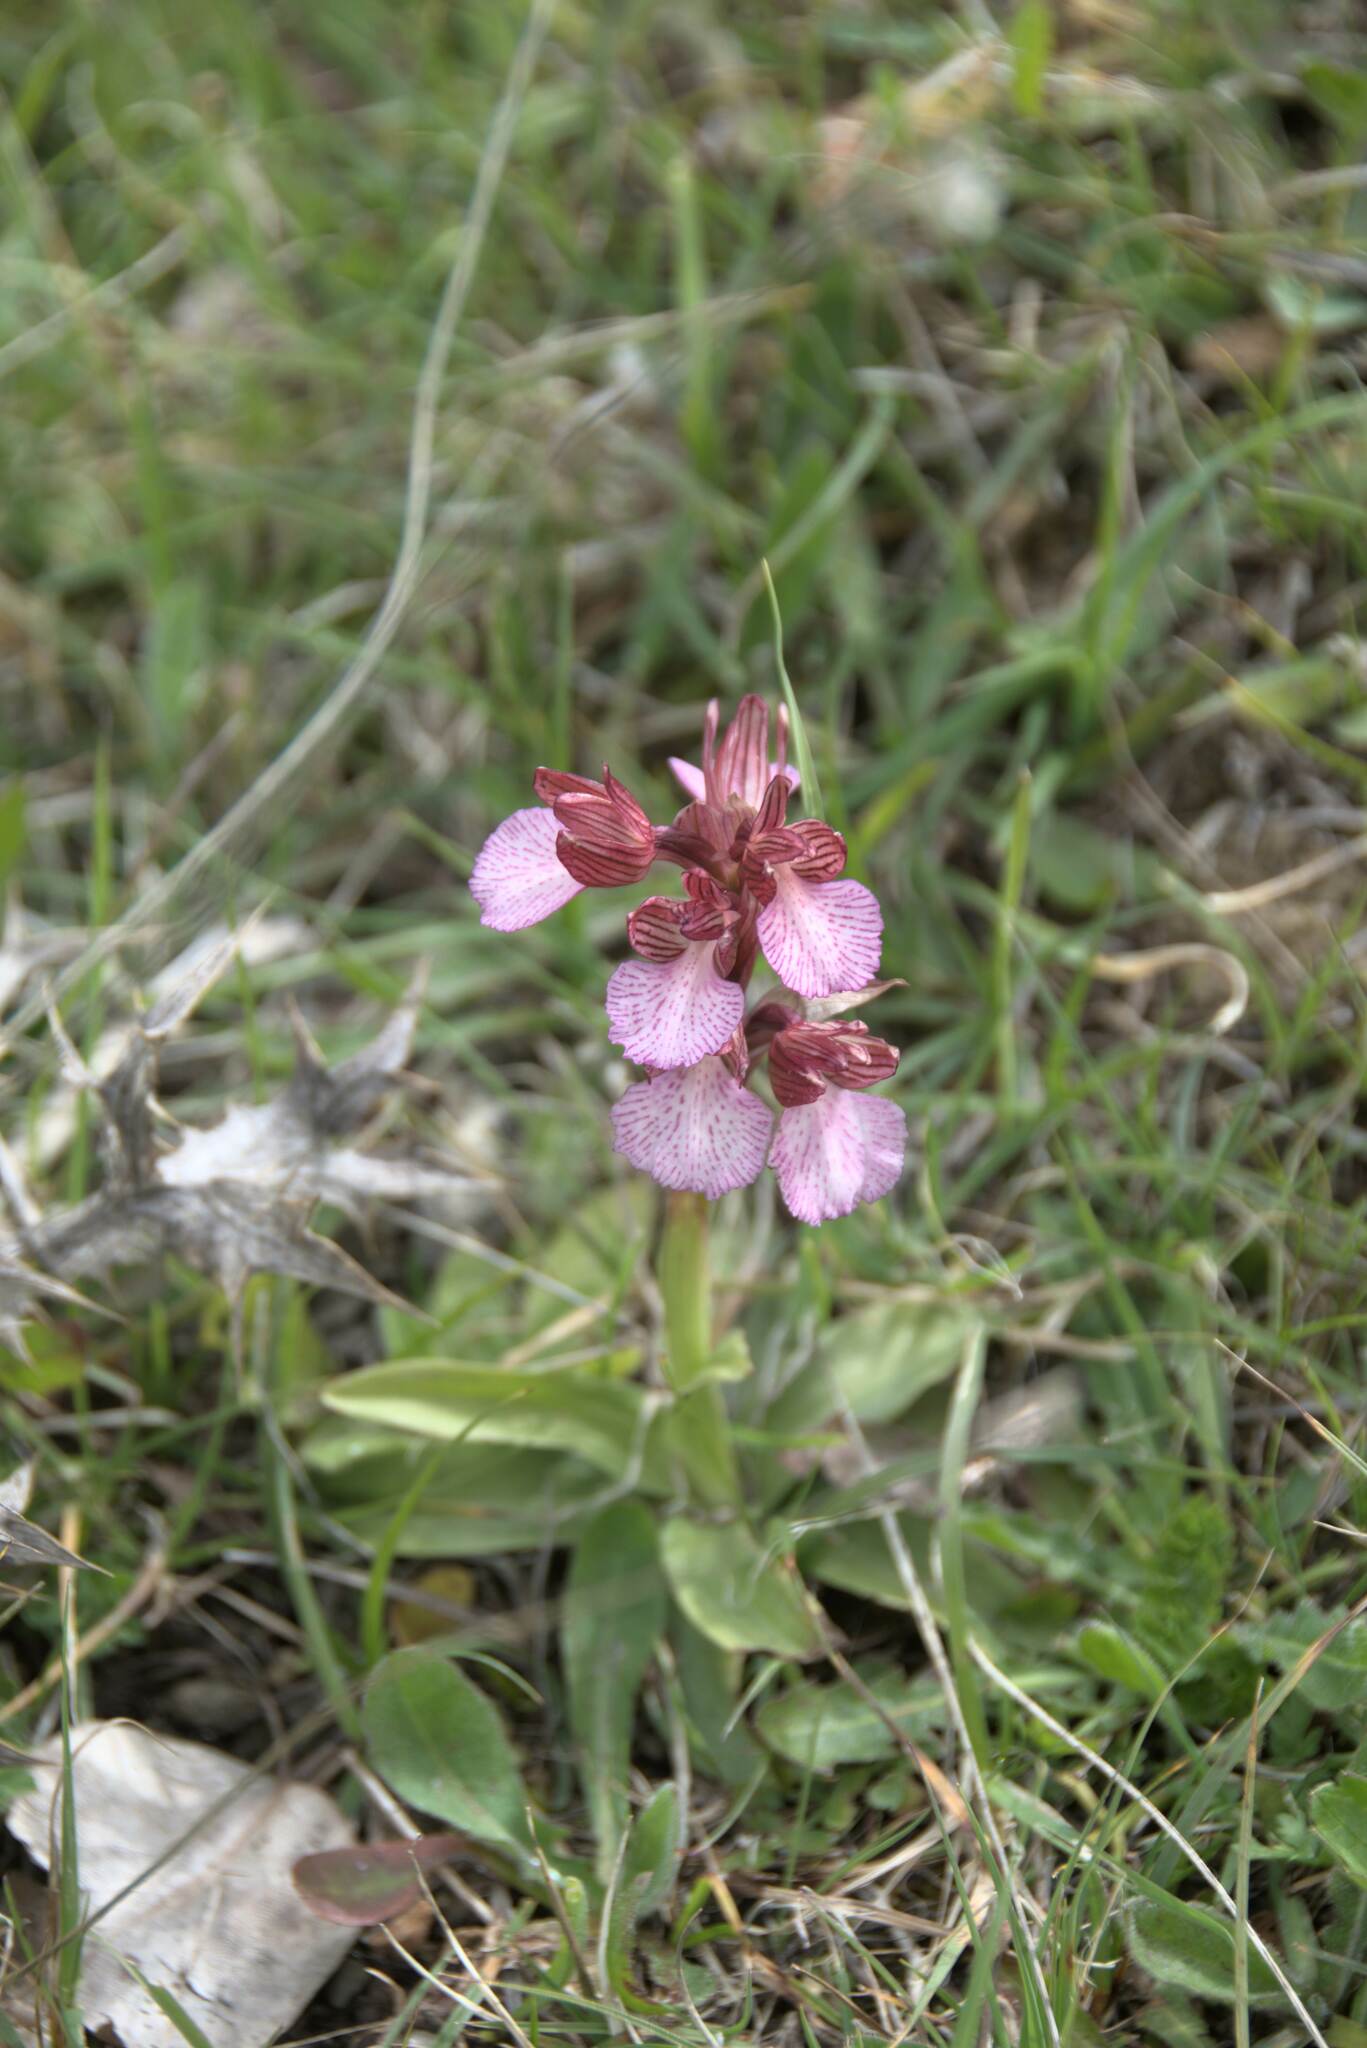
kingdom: Plantae
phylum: Tracheophyta
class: Liliopsida
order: Asparagales
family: Orchidaceae
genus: Anacamptis
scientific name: Anacamptis papilionacea
